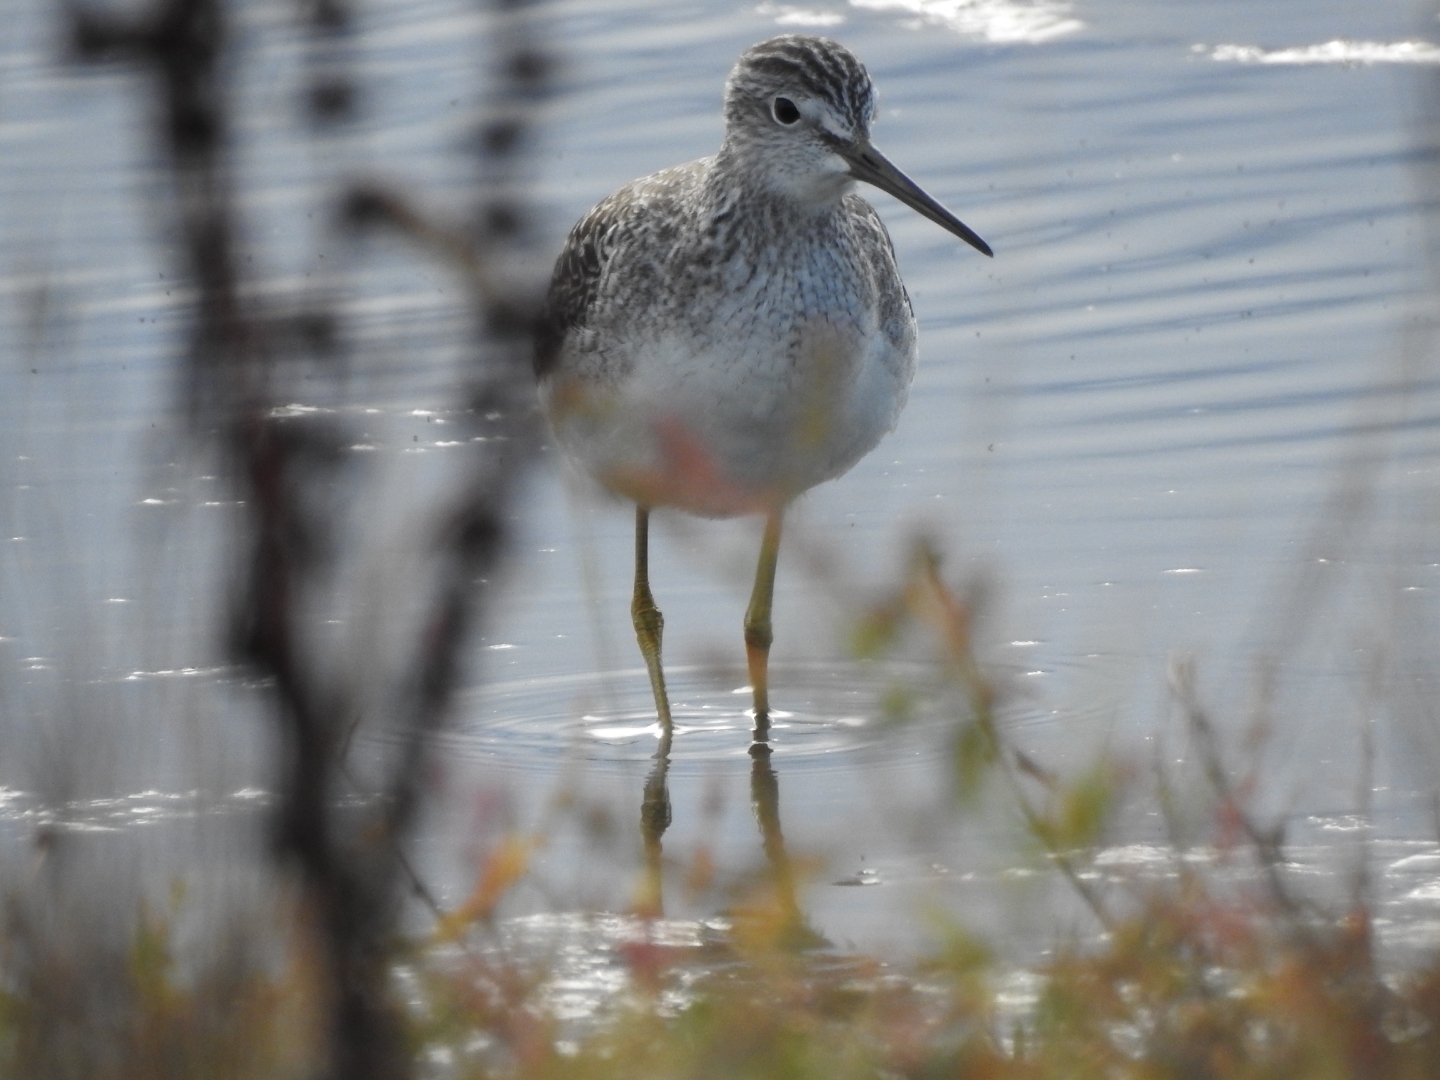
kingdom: Animalia
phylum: Chordata
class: Aves
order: Charadriiformes
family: Scolopacidae
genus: Tringa
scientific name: Tringa melanoleuca
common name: Greater yellowlegs
